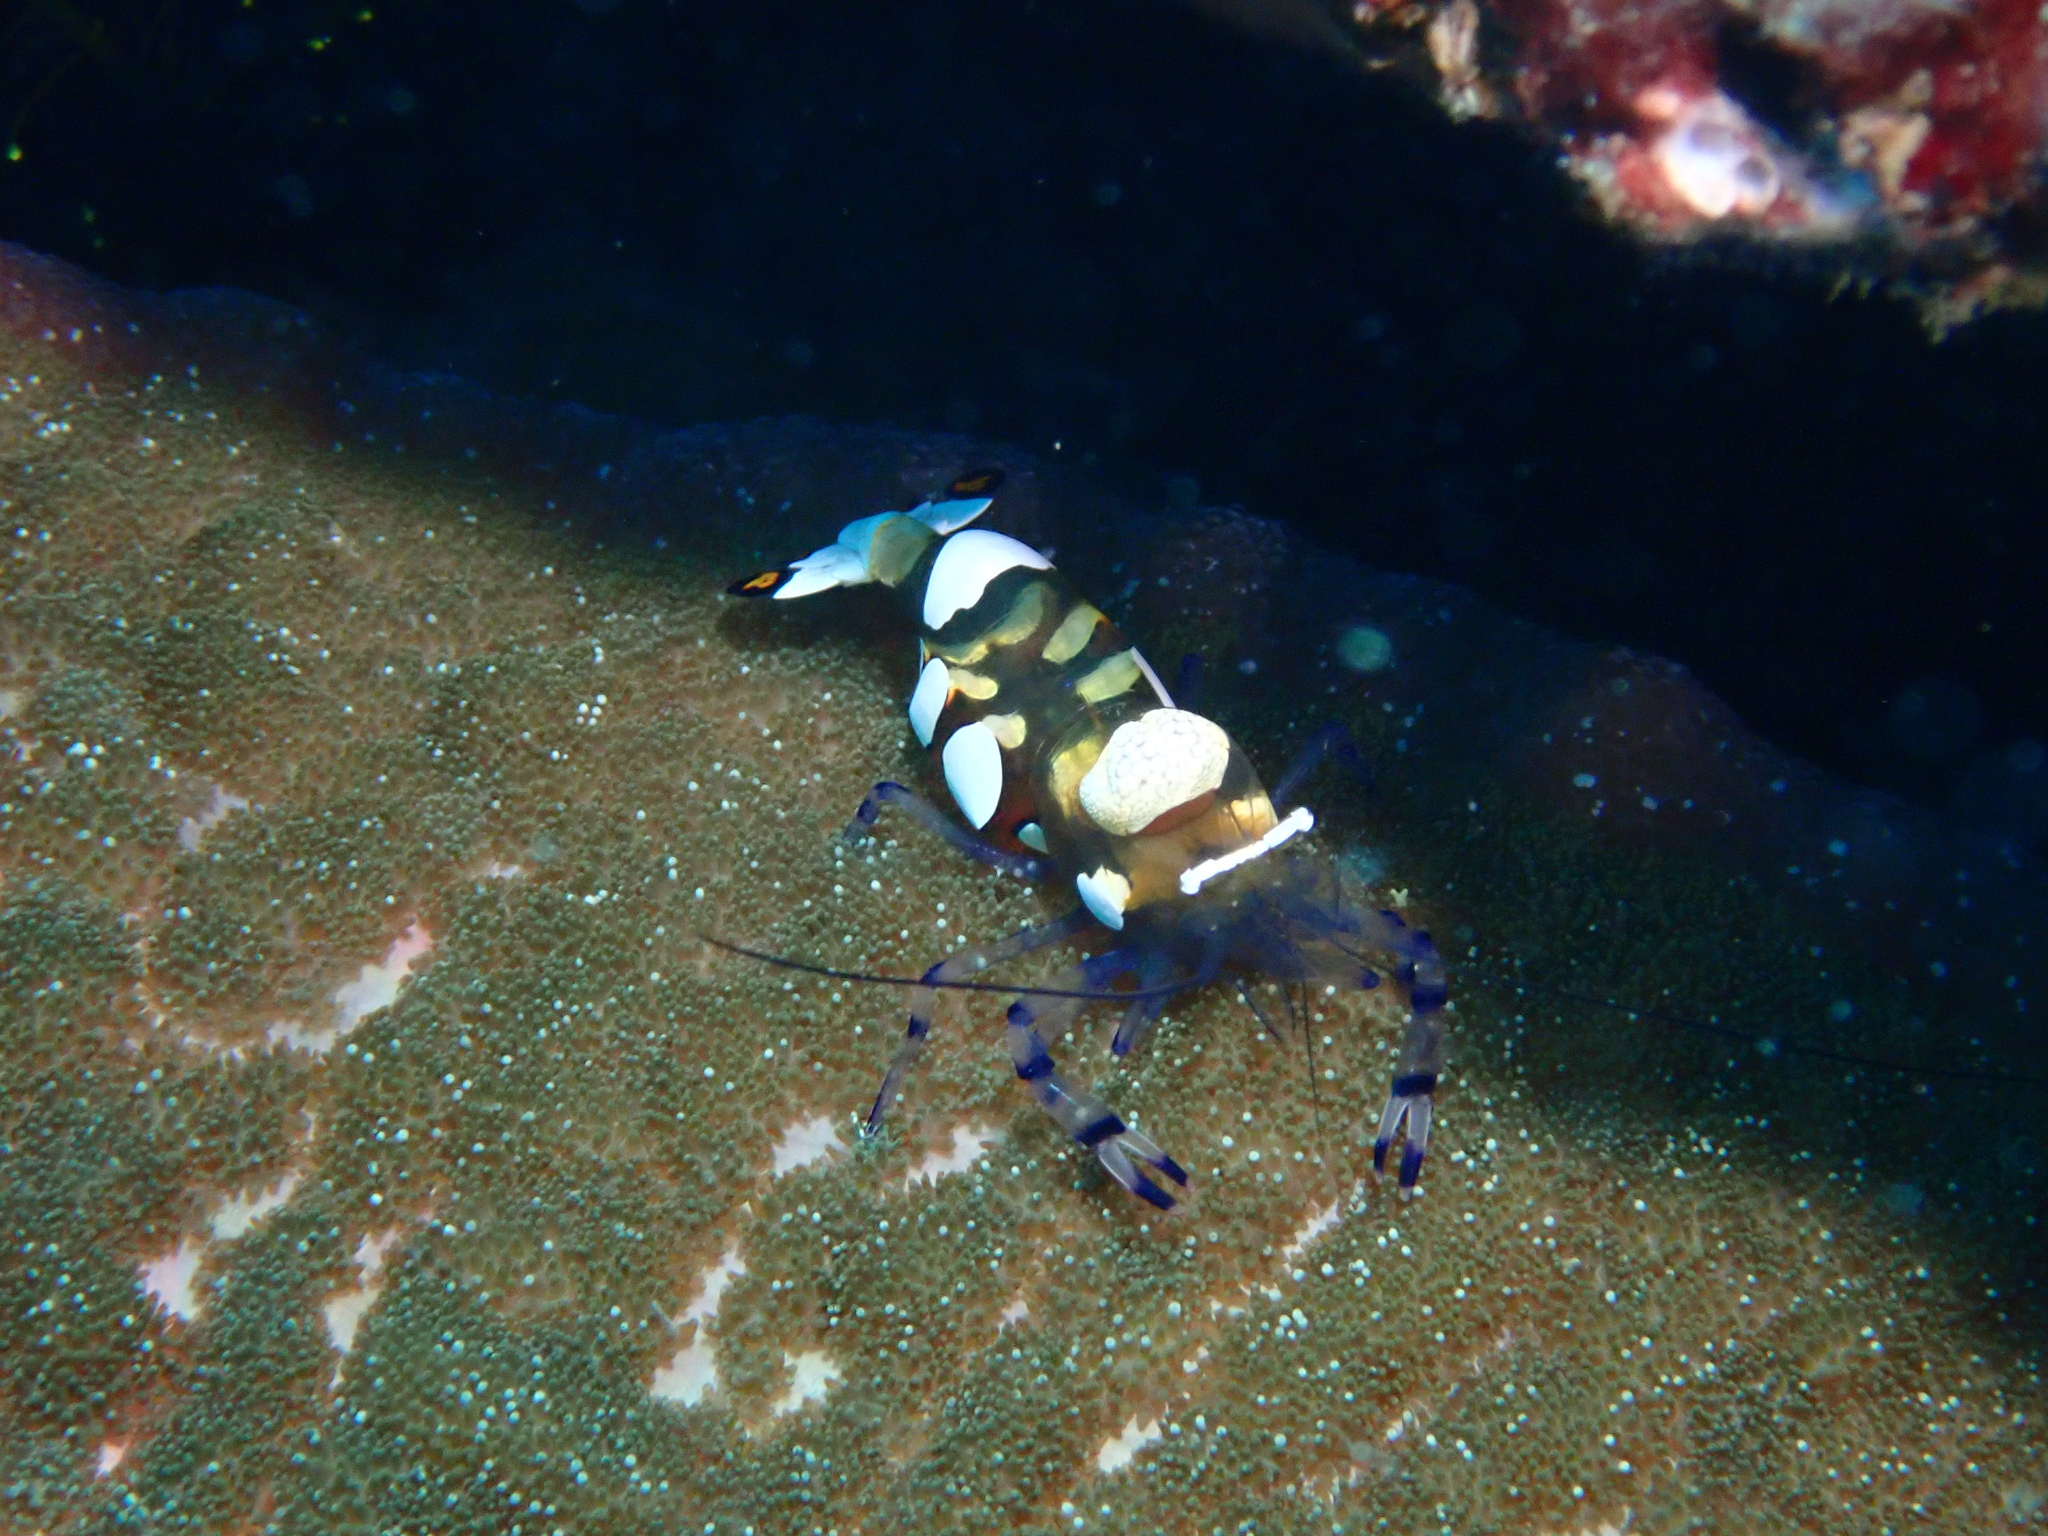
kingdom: Animalia
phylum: Arthropoda
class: Malacostraca
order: Decapoda
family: Palaemonidae
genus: Ancylocaris
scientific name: Ancylocaris brevicarpalis
